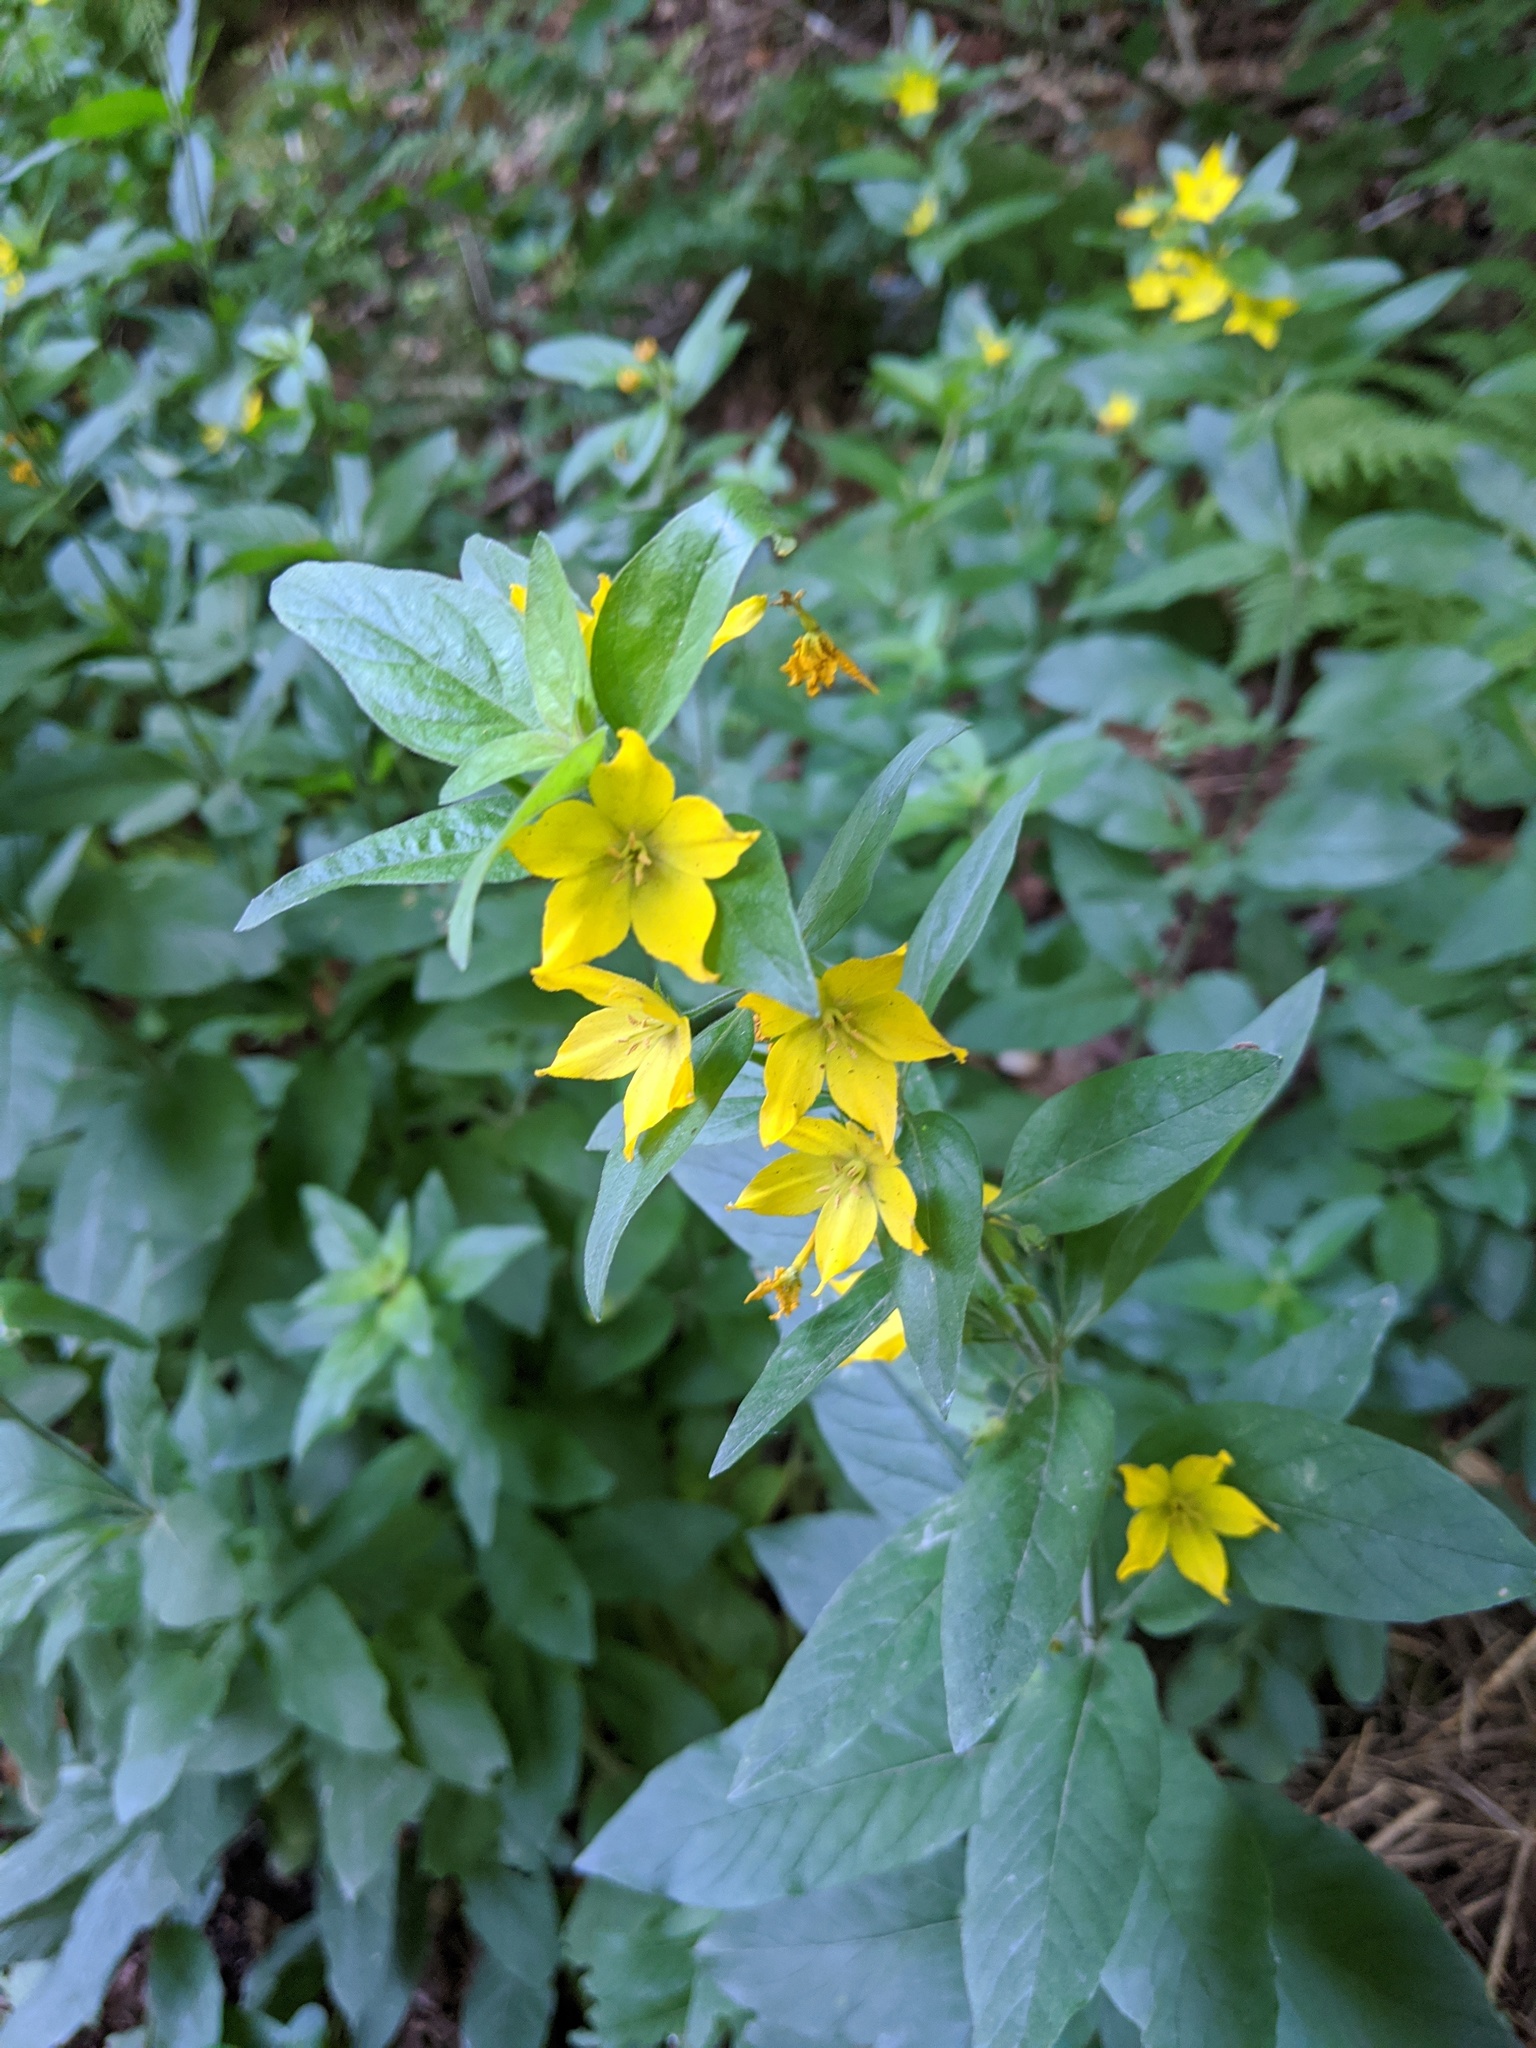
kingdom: Plantae
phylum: Tracheophyta
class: Magnoliopsida
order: Ericales
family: Primulaceae
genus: Lysimachia
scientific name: Lysimachia punctata
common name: Dotted loosestrife
